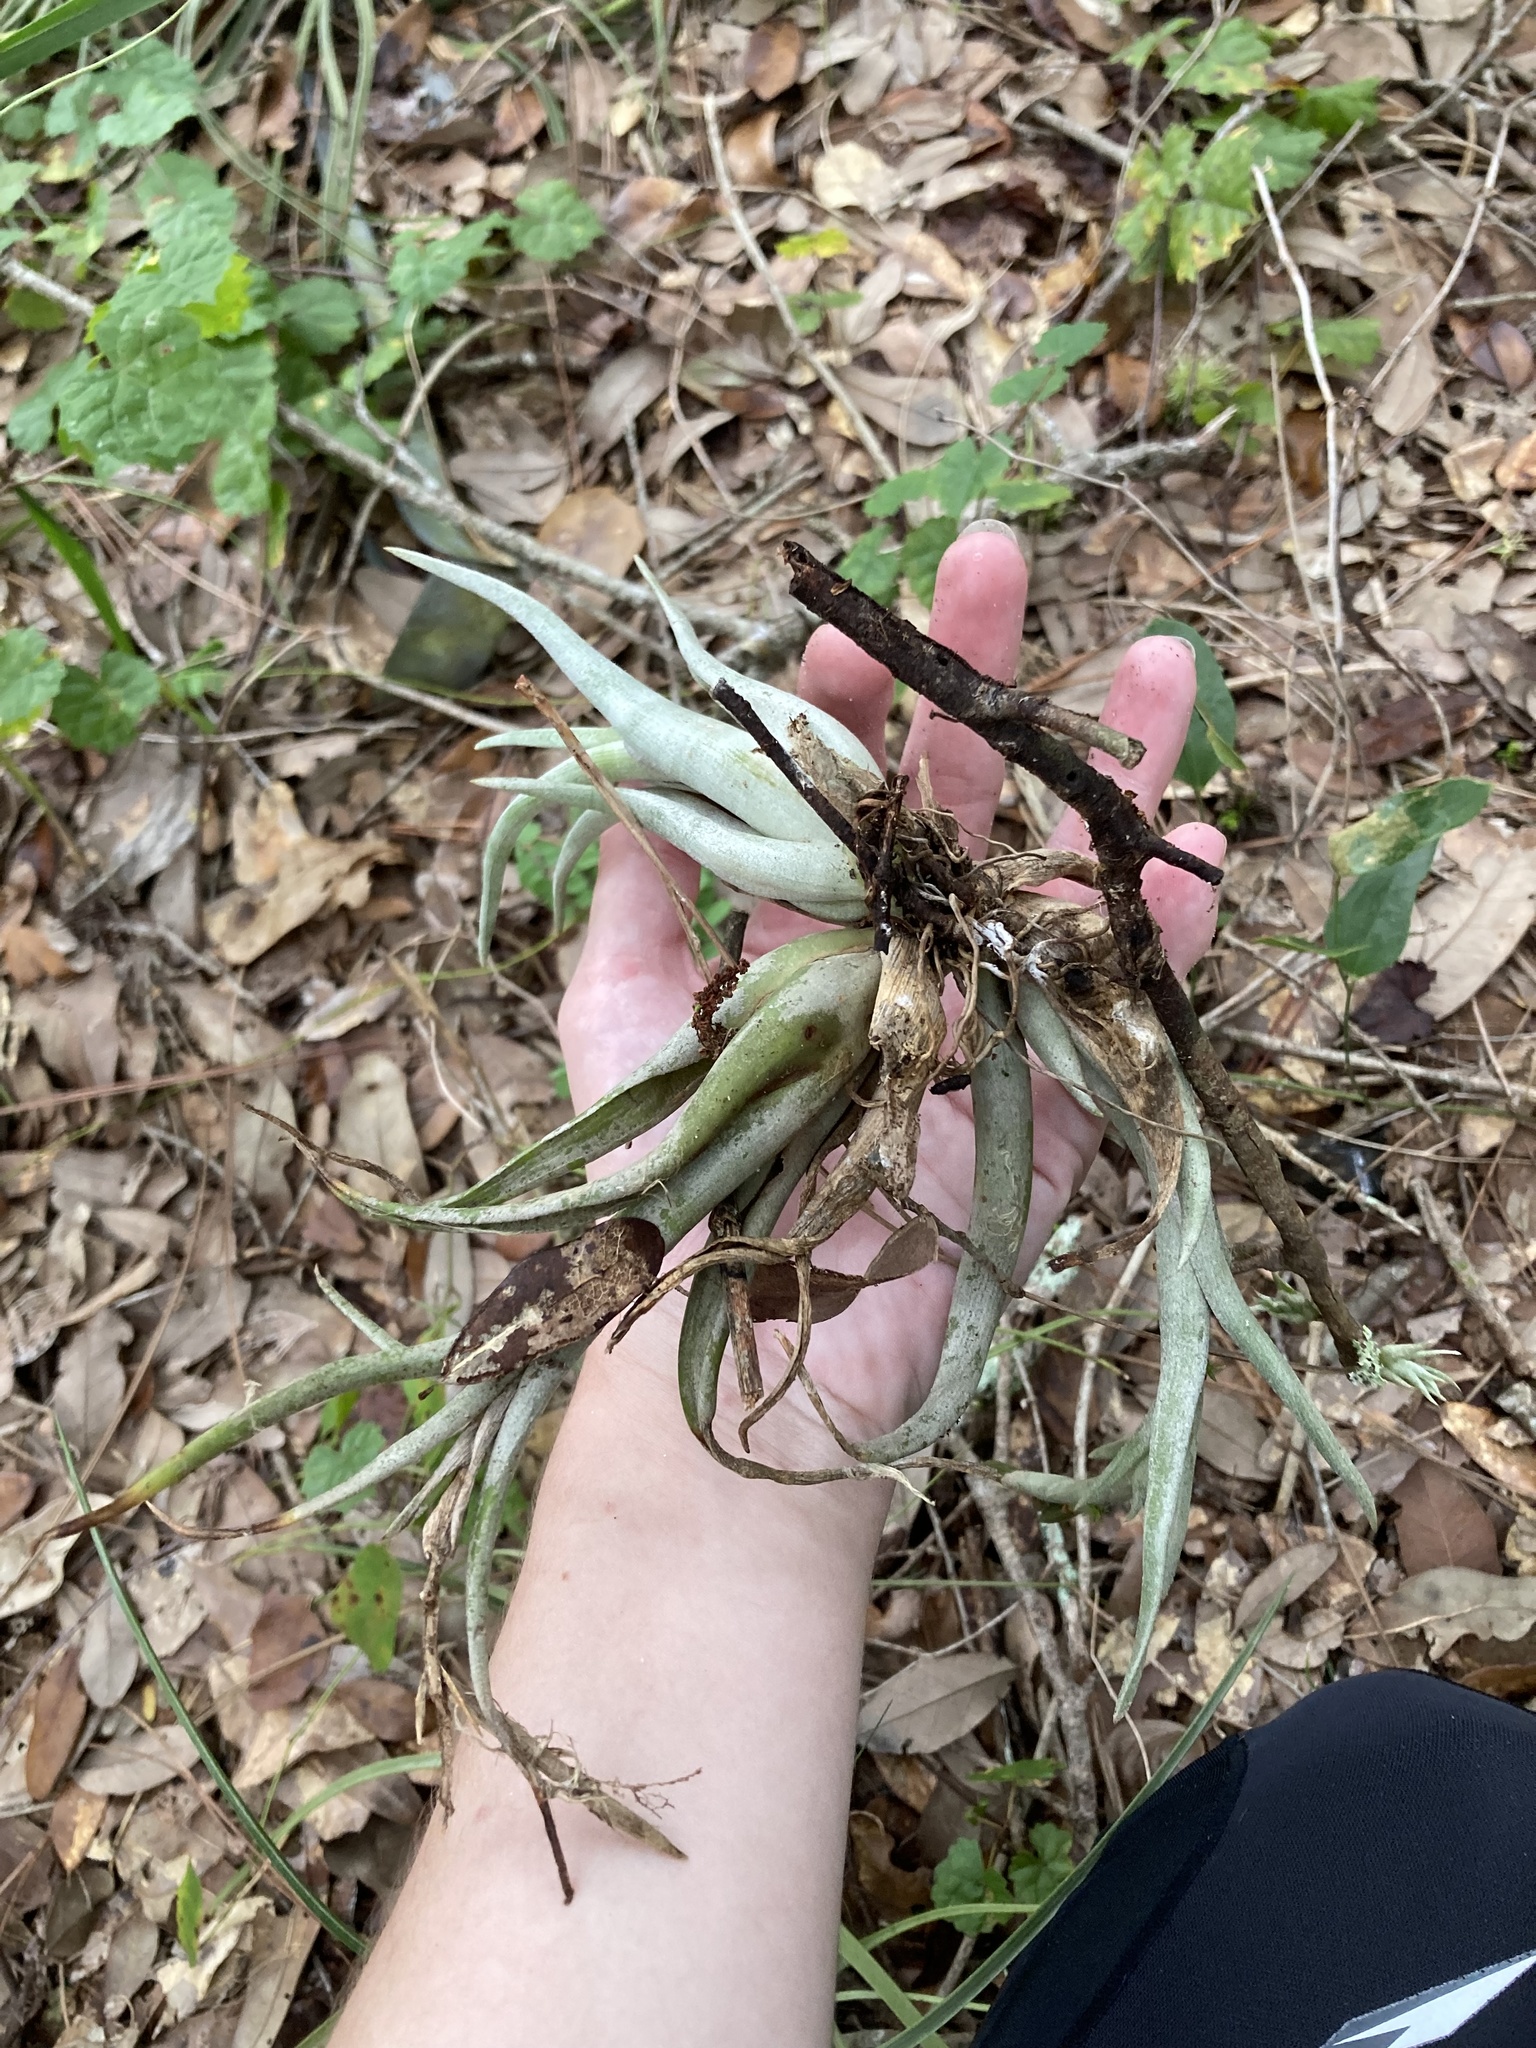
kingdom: Plantae
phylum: Tracheophyta
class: Liliopsida
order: Poales
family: Bromeliaceae
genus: Tillandsia
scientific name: Tillandsia paucifolia
